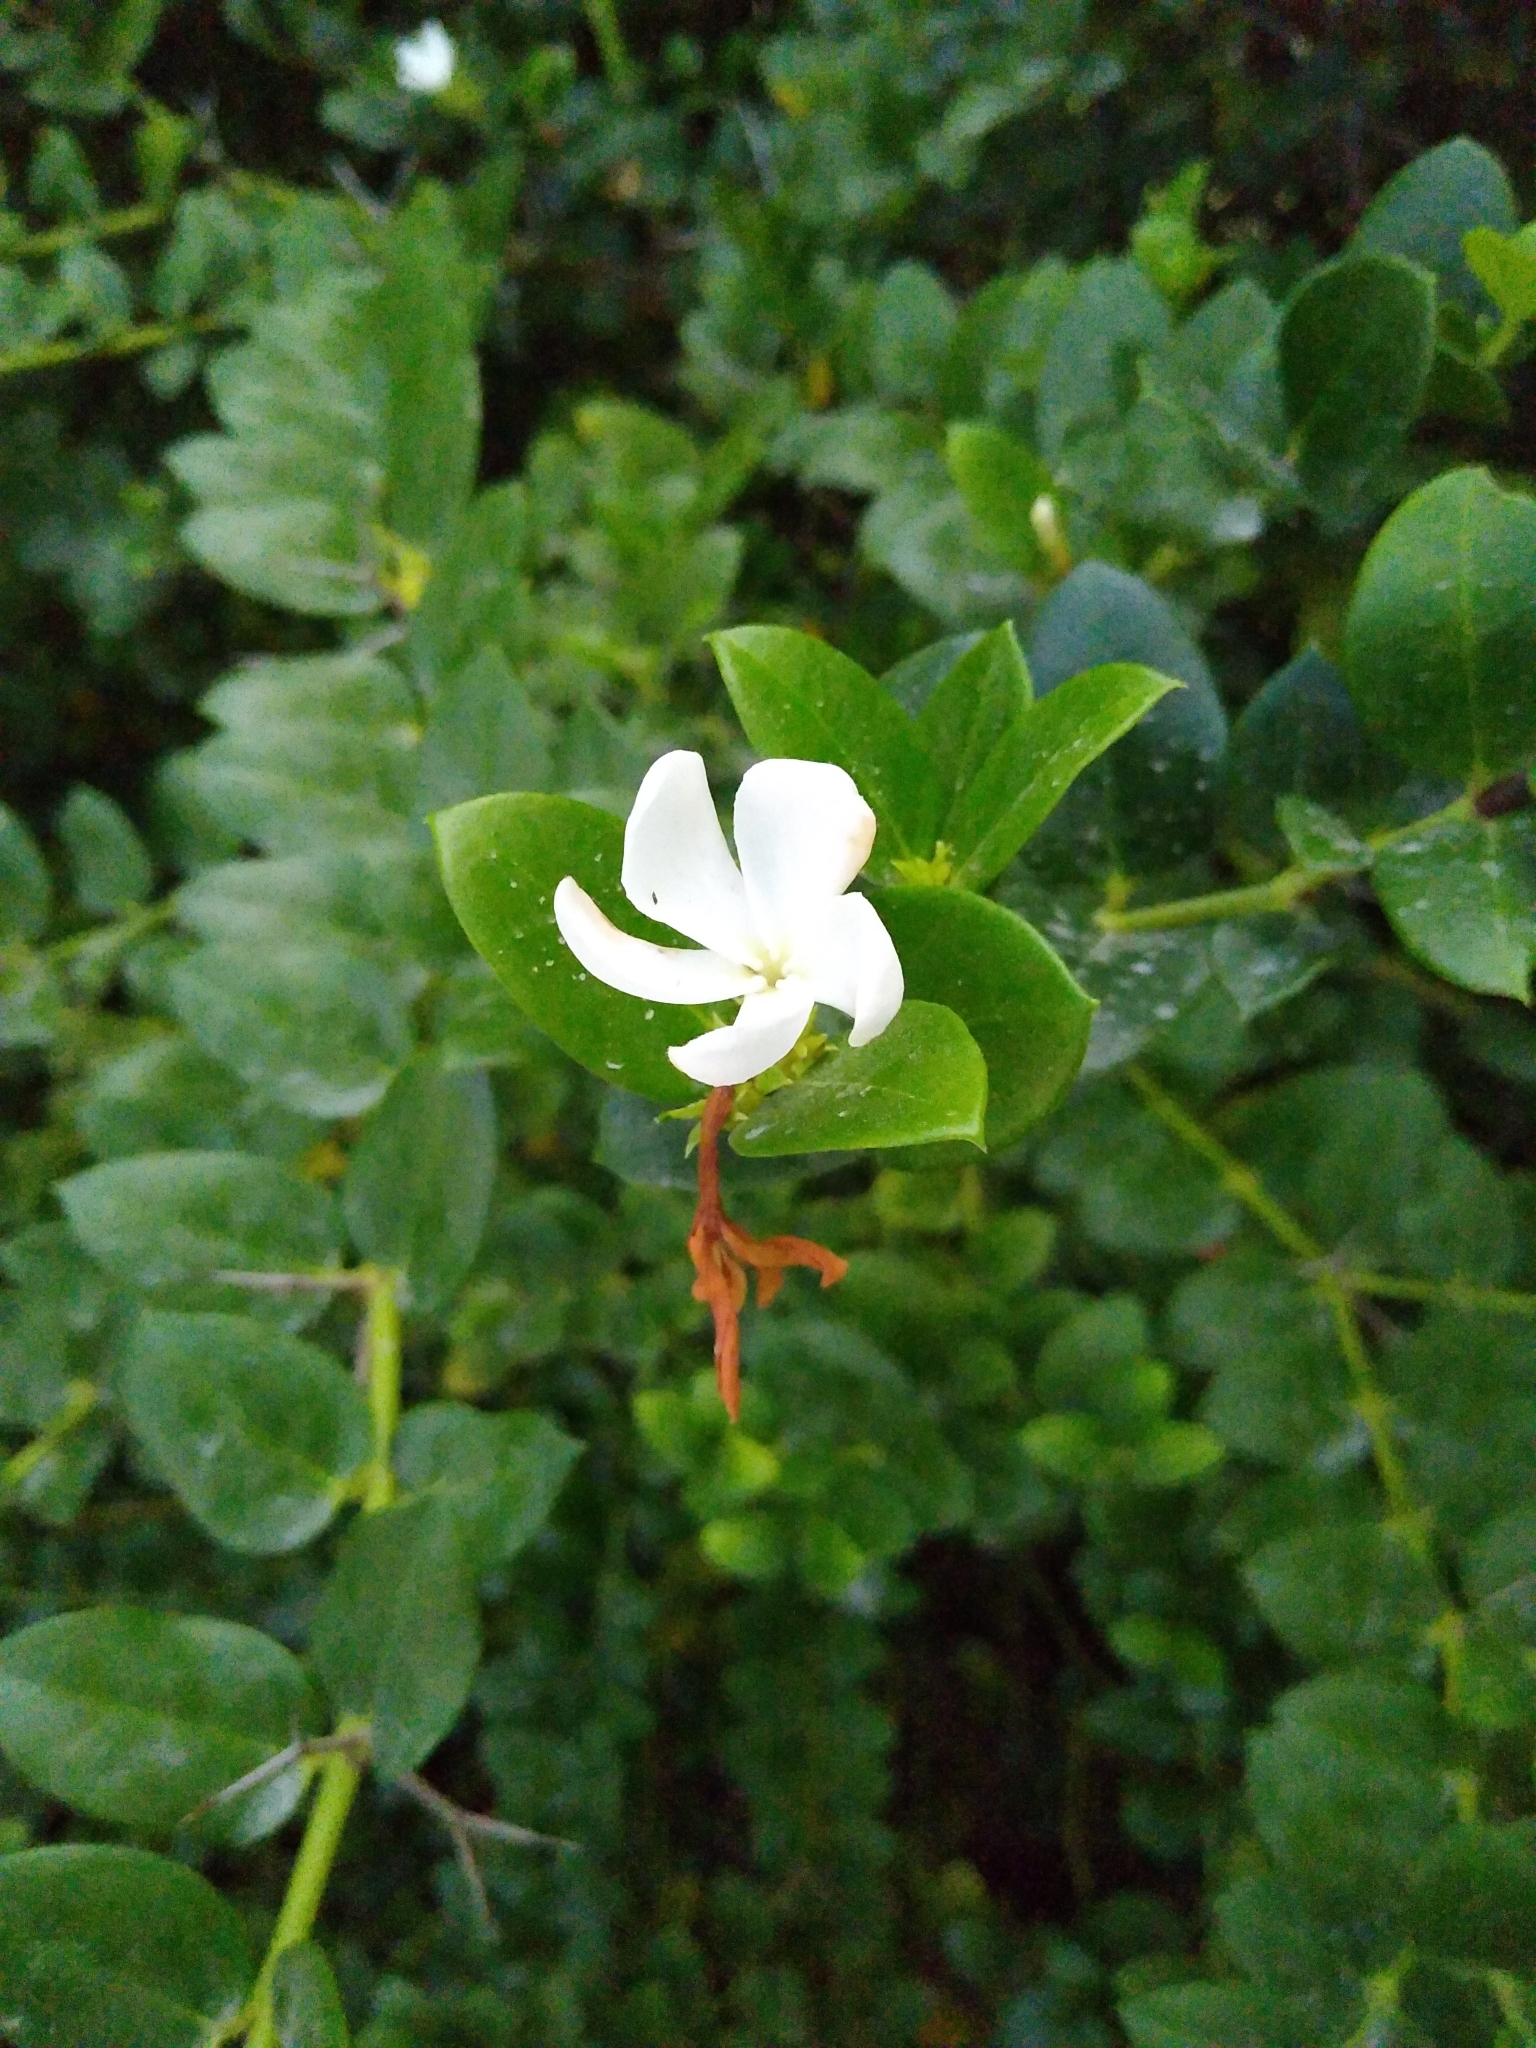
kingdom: Plantae
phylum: Tracheophyta
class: Magnoliopsida
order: Gentianales
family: Apocynaceae
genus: Carissa
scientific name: Carissa macrocarpa
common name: Natal plum
